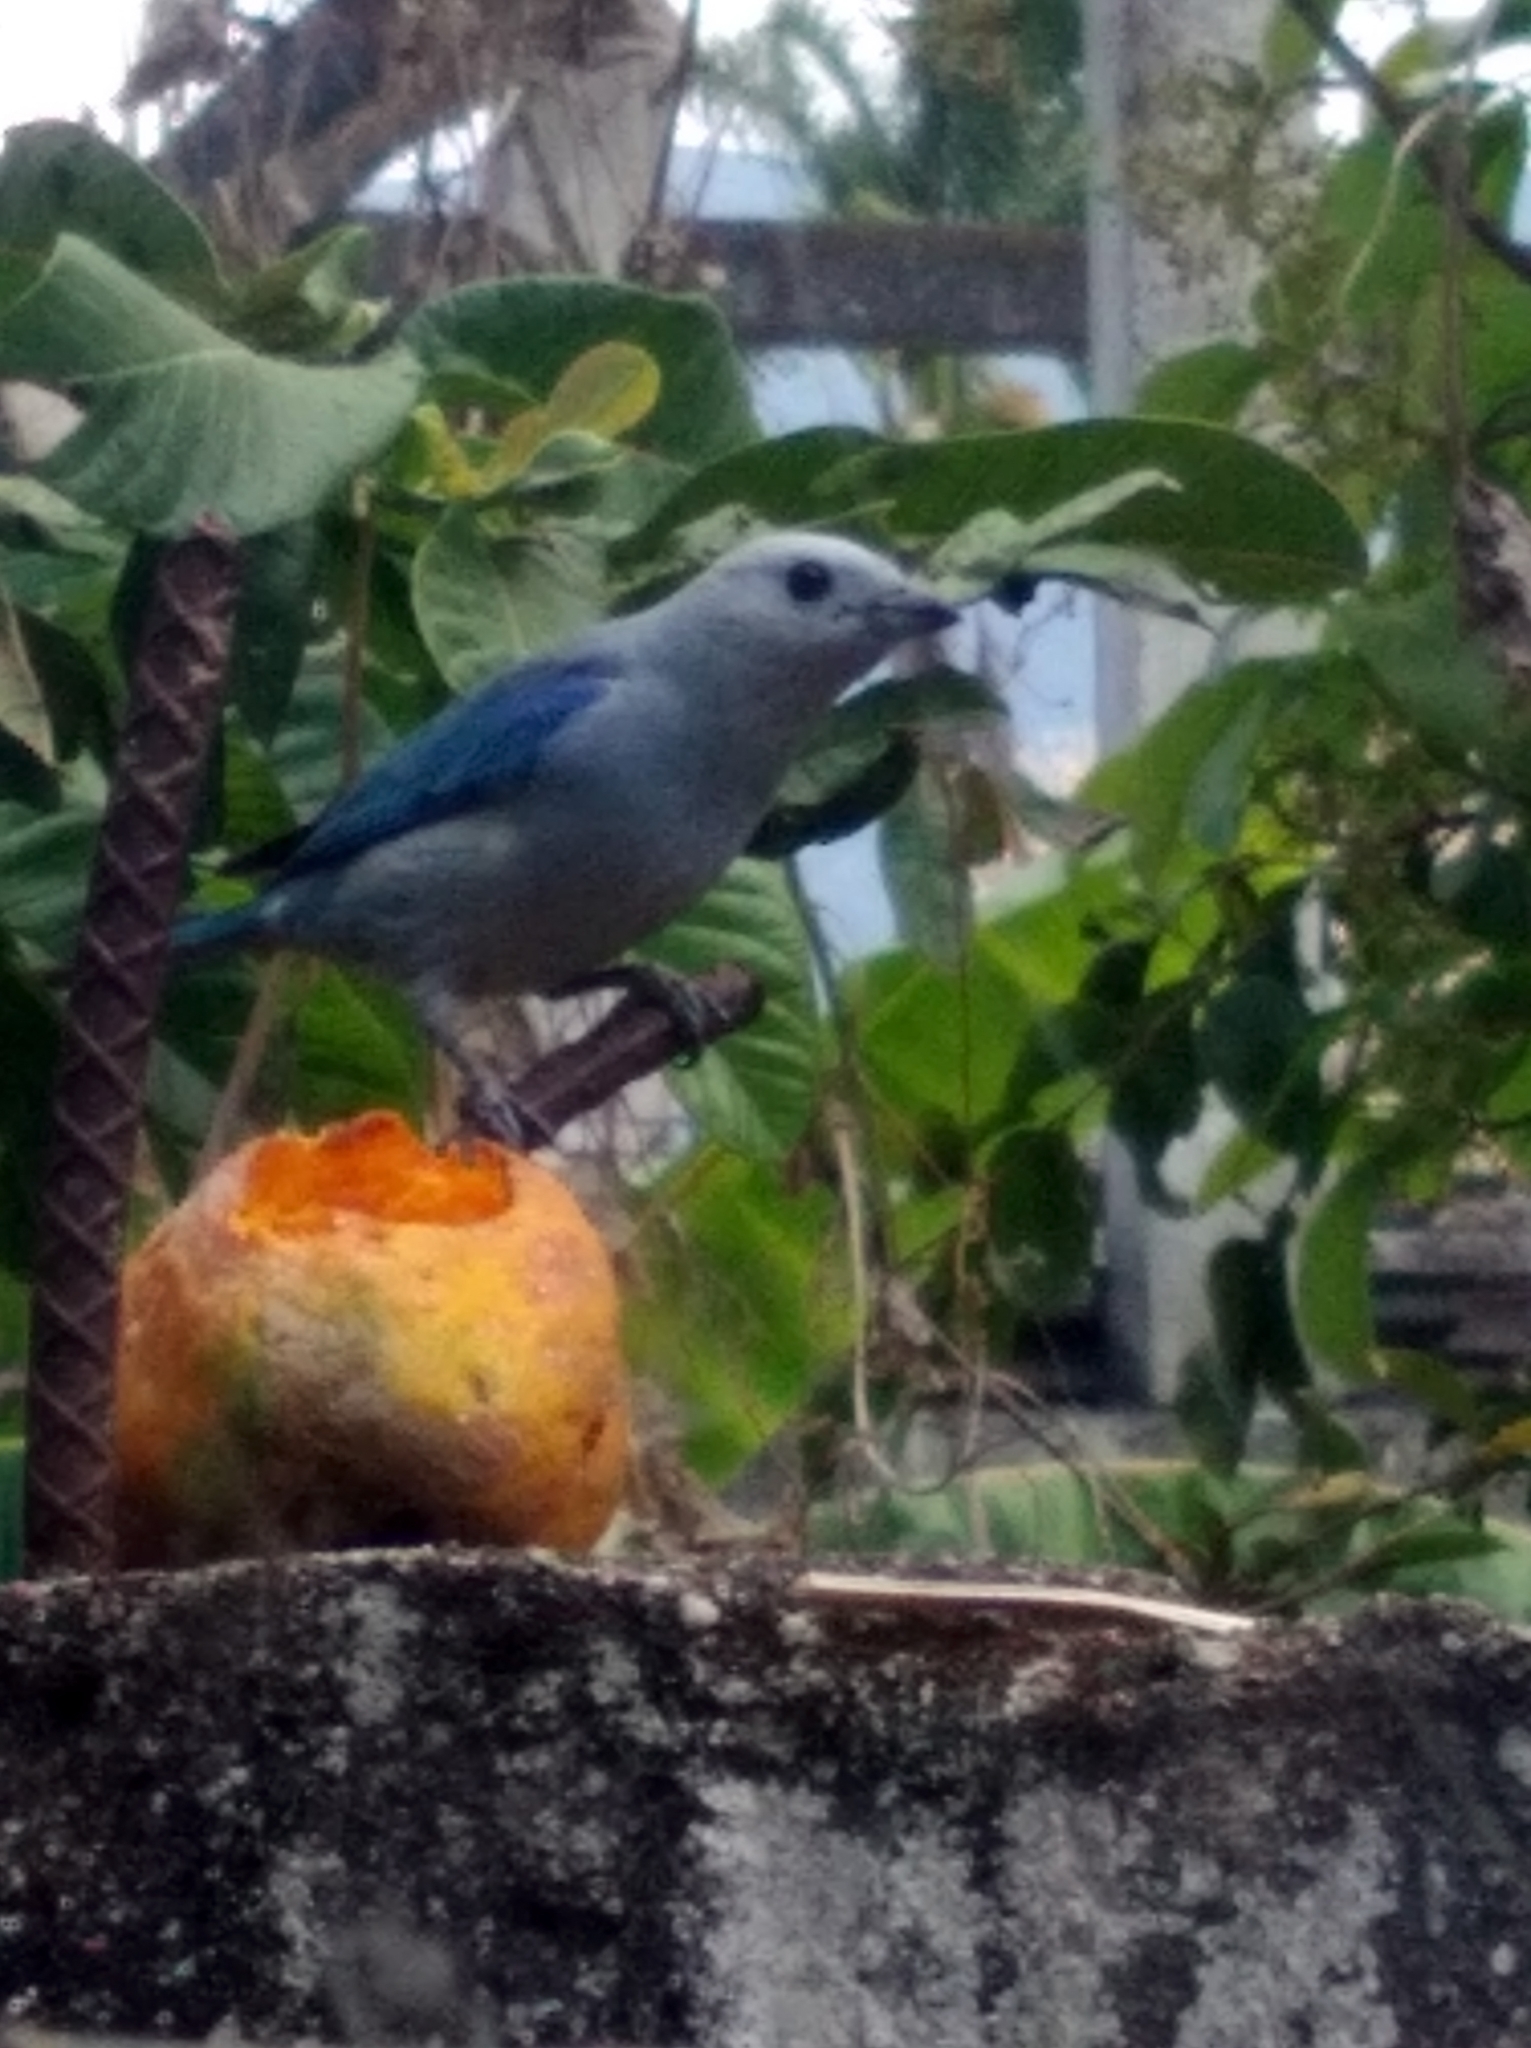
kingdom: Animalia
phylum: Chordata
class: Aves
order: Passeriformes
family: Thraupidae
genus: Thraupis
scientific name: Thraupis episcopus
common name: Blue-grey tanager
